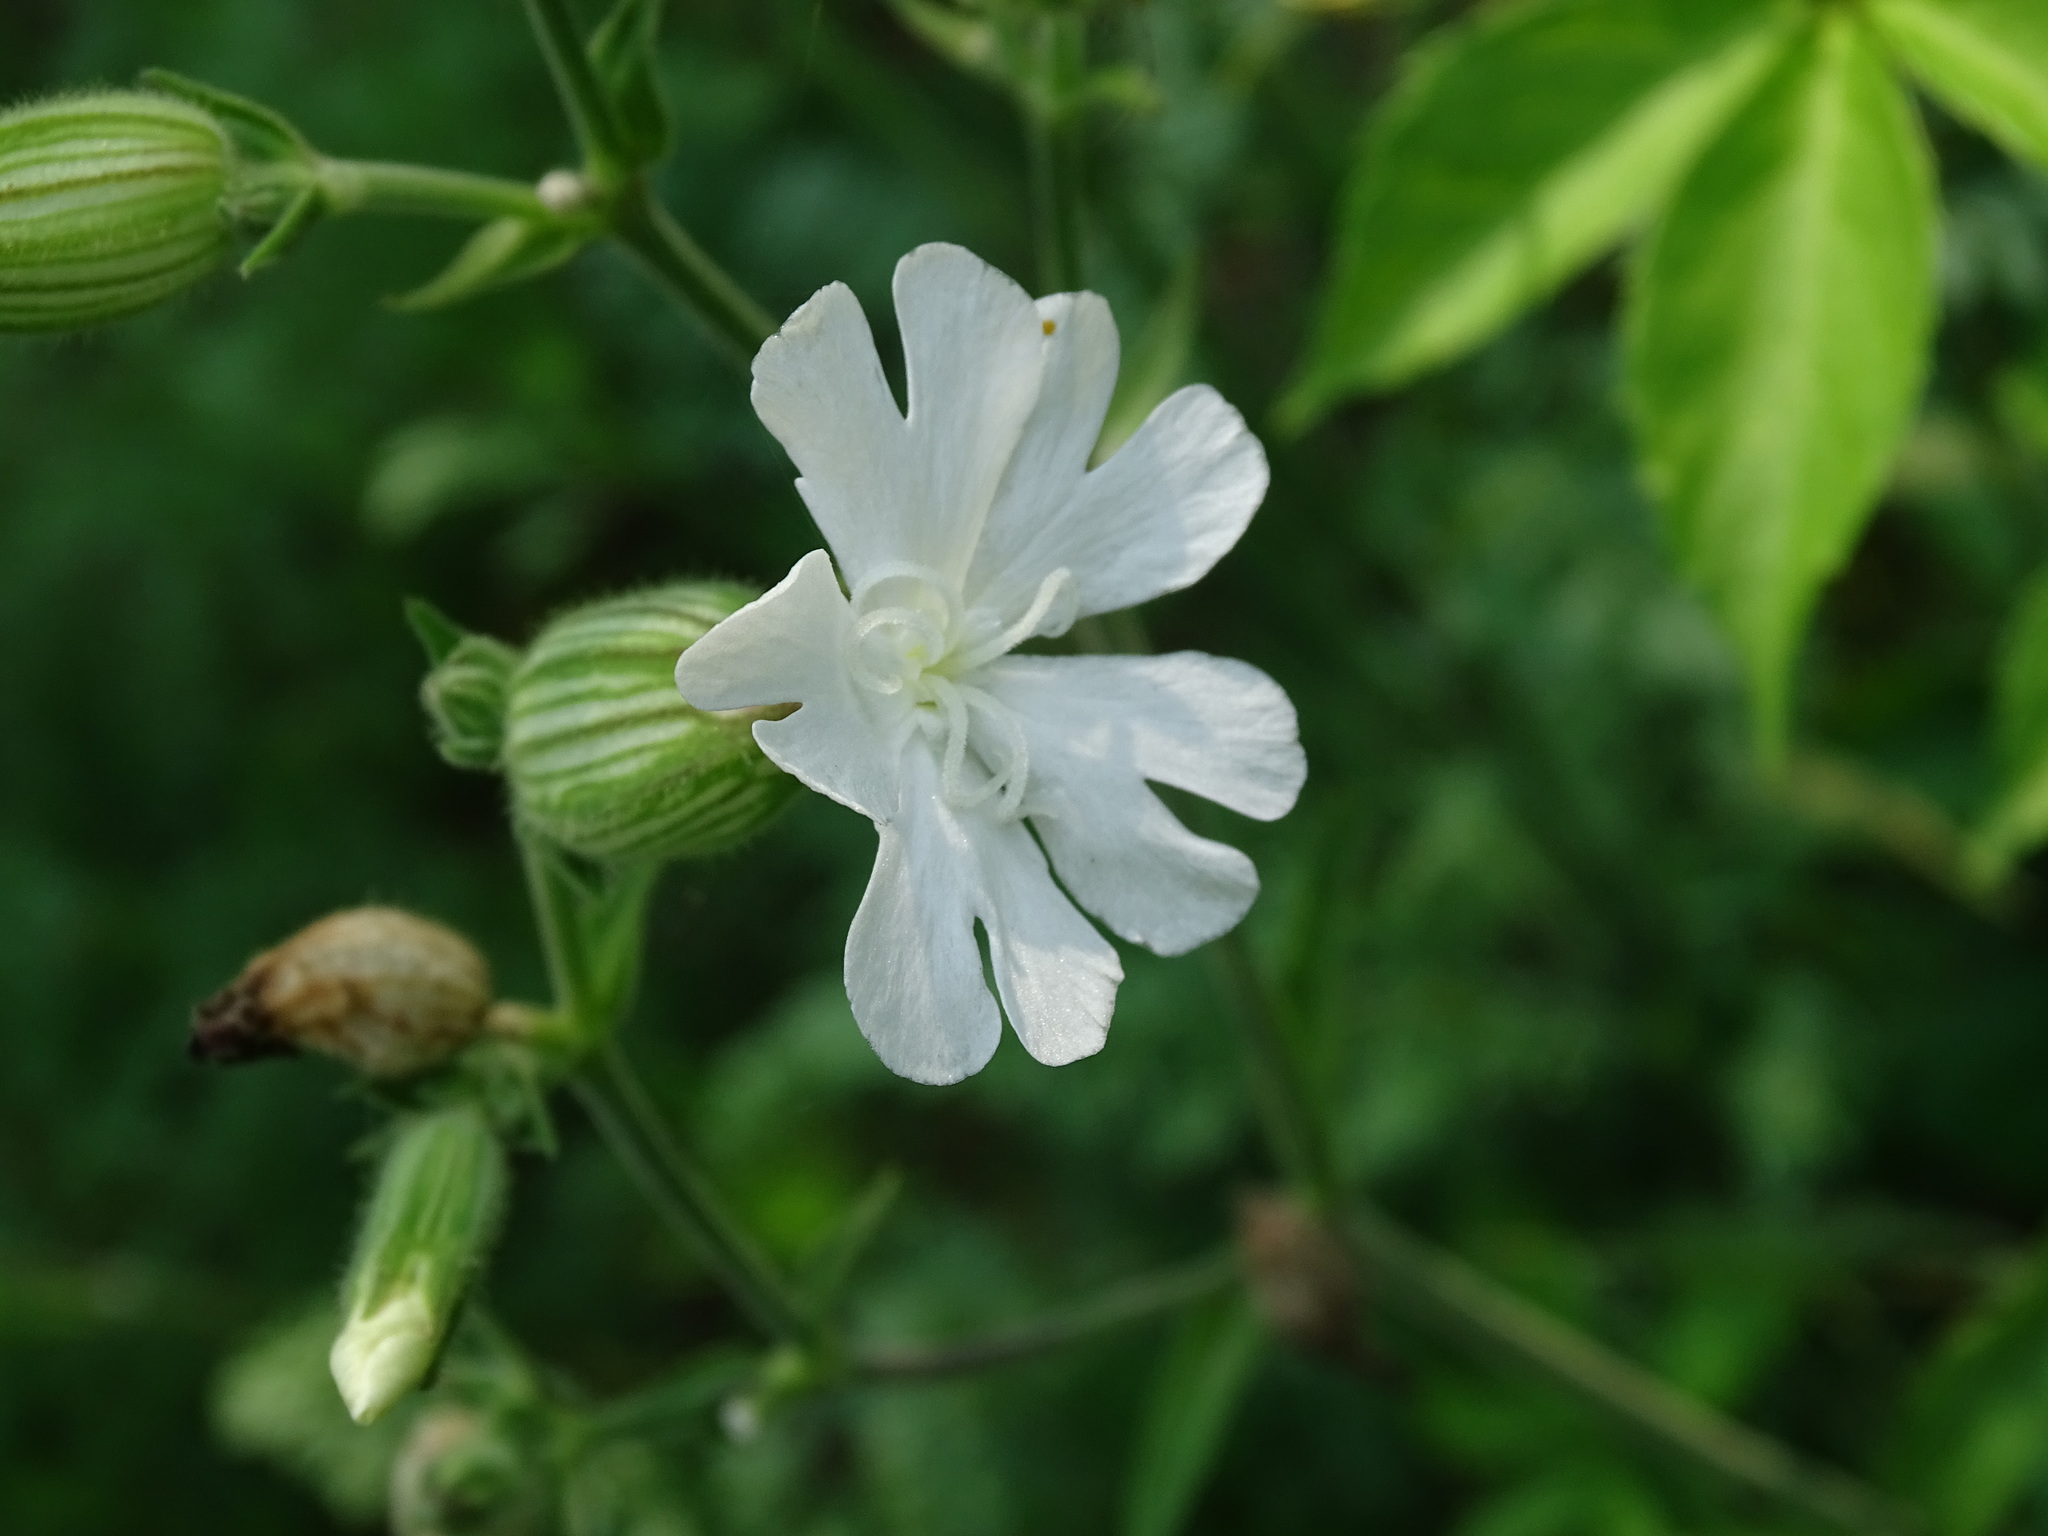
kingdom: Plantae
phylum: Tracheophyta
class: Magnoliopsida
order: Caryophyllales
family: Caryophyllaceae
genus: Silene
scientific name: Silene latifolia
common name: White campion
